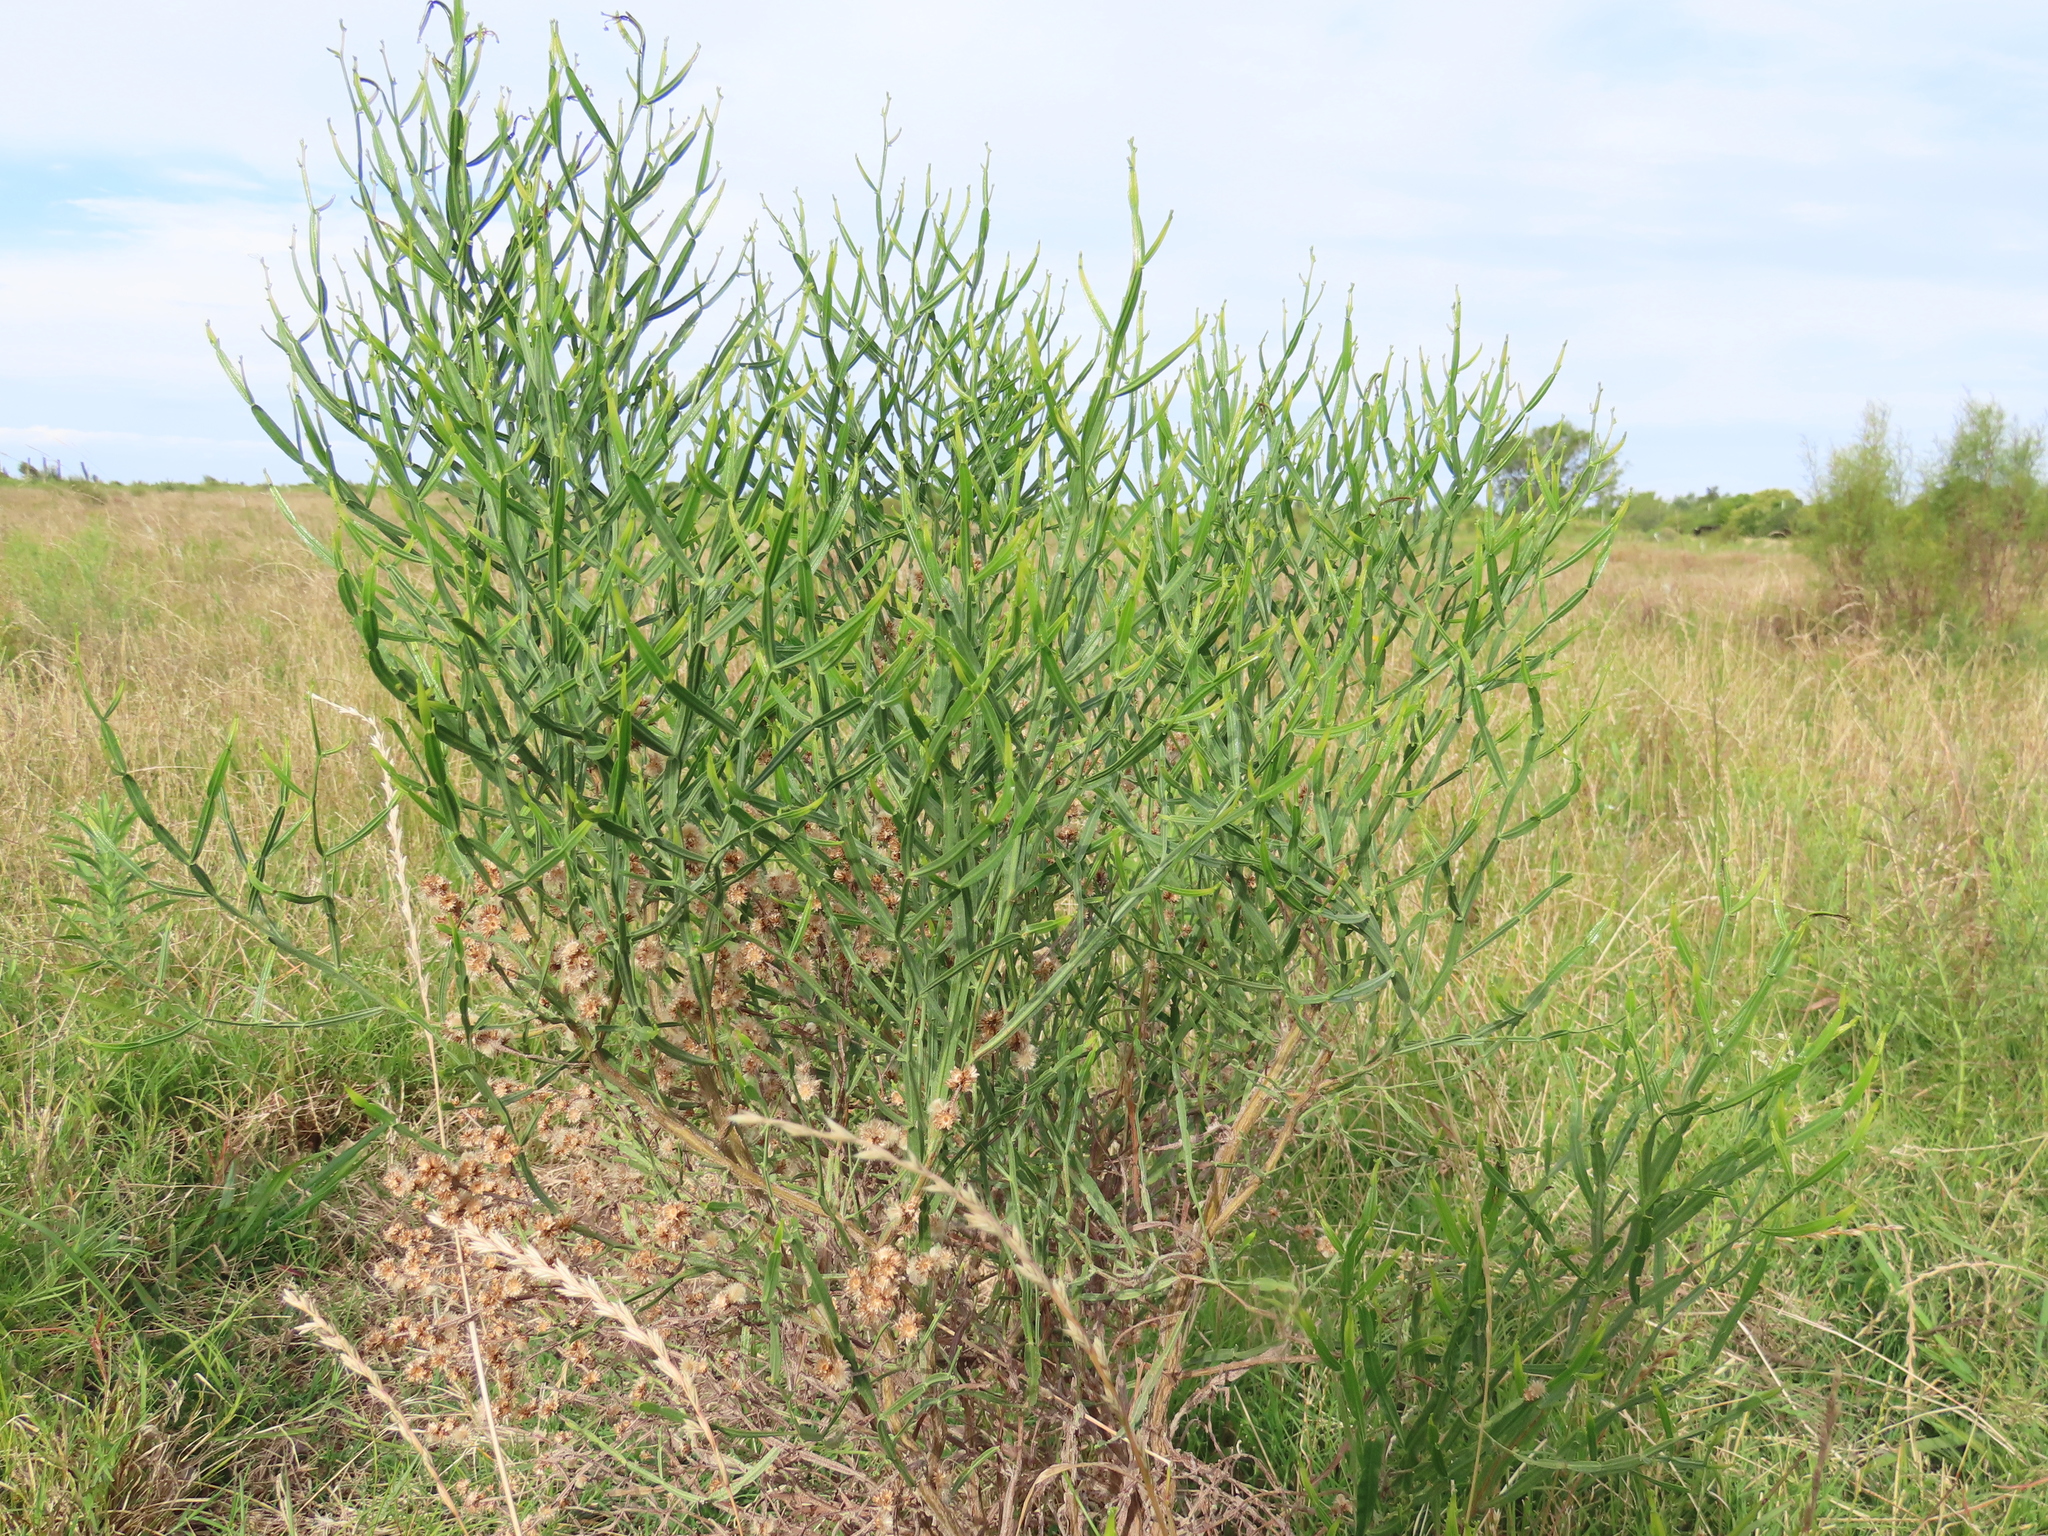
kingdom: Plantae
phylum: Tracheophyta
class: Magnoliopsida
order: Asterales
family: Asteraceae
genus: Baccharis
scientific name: Baccharis articulata
